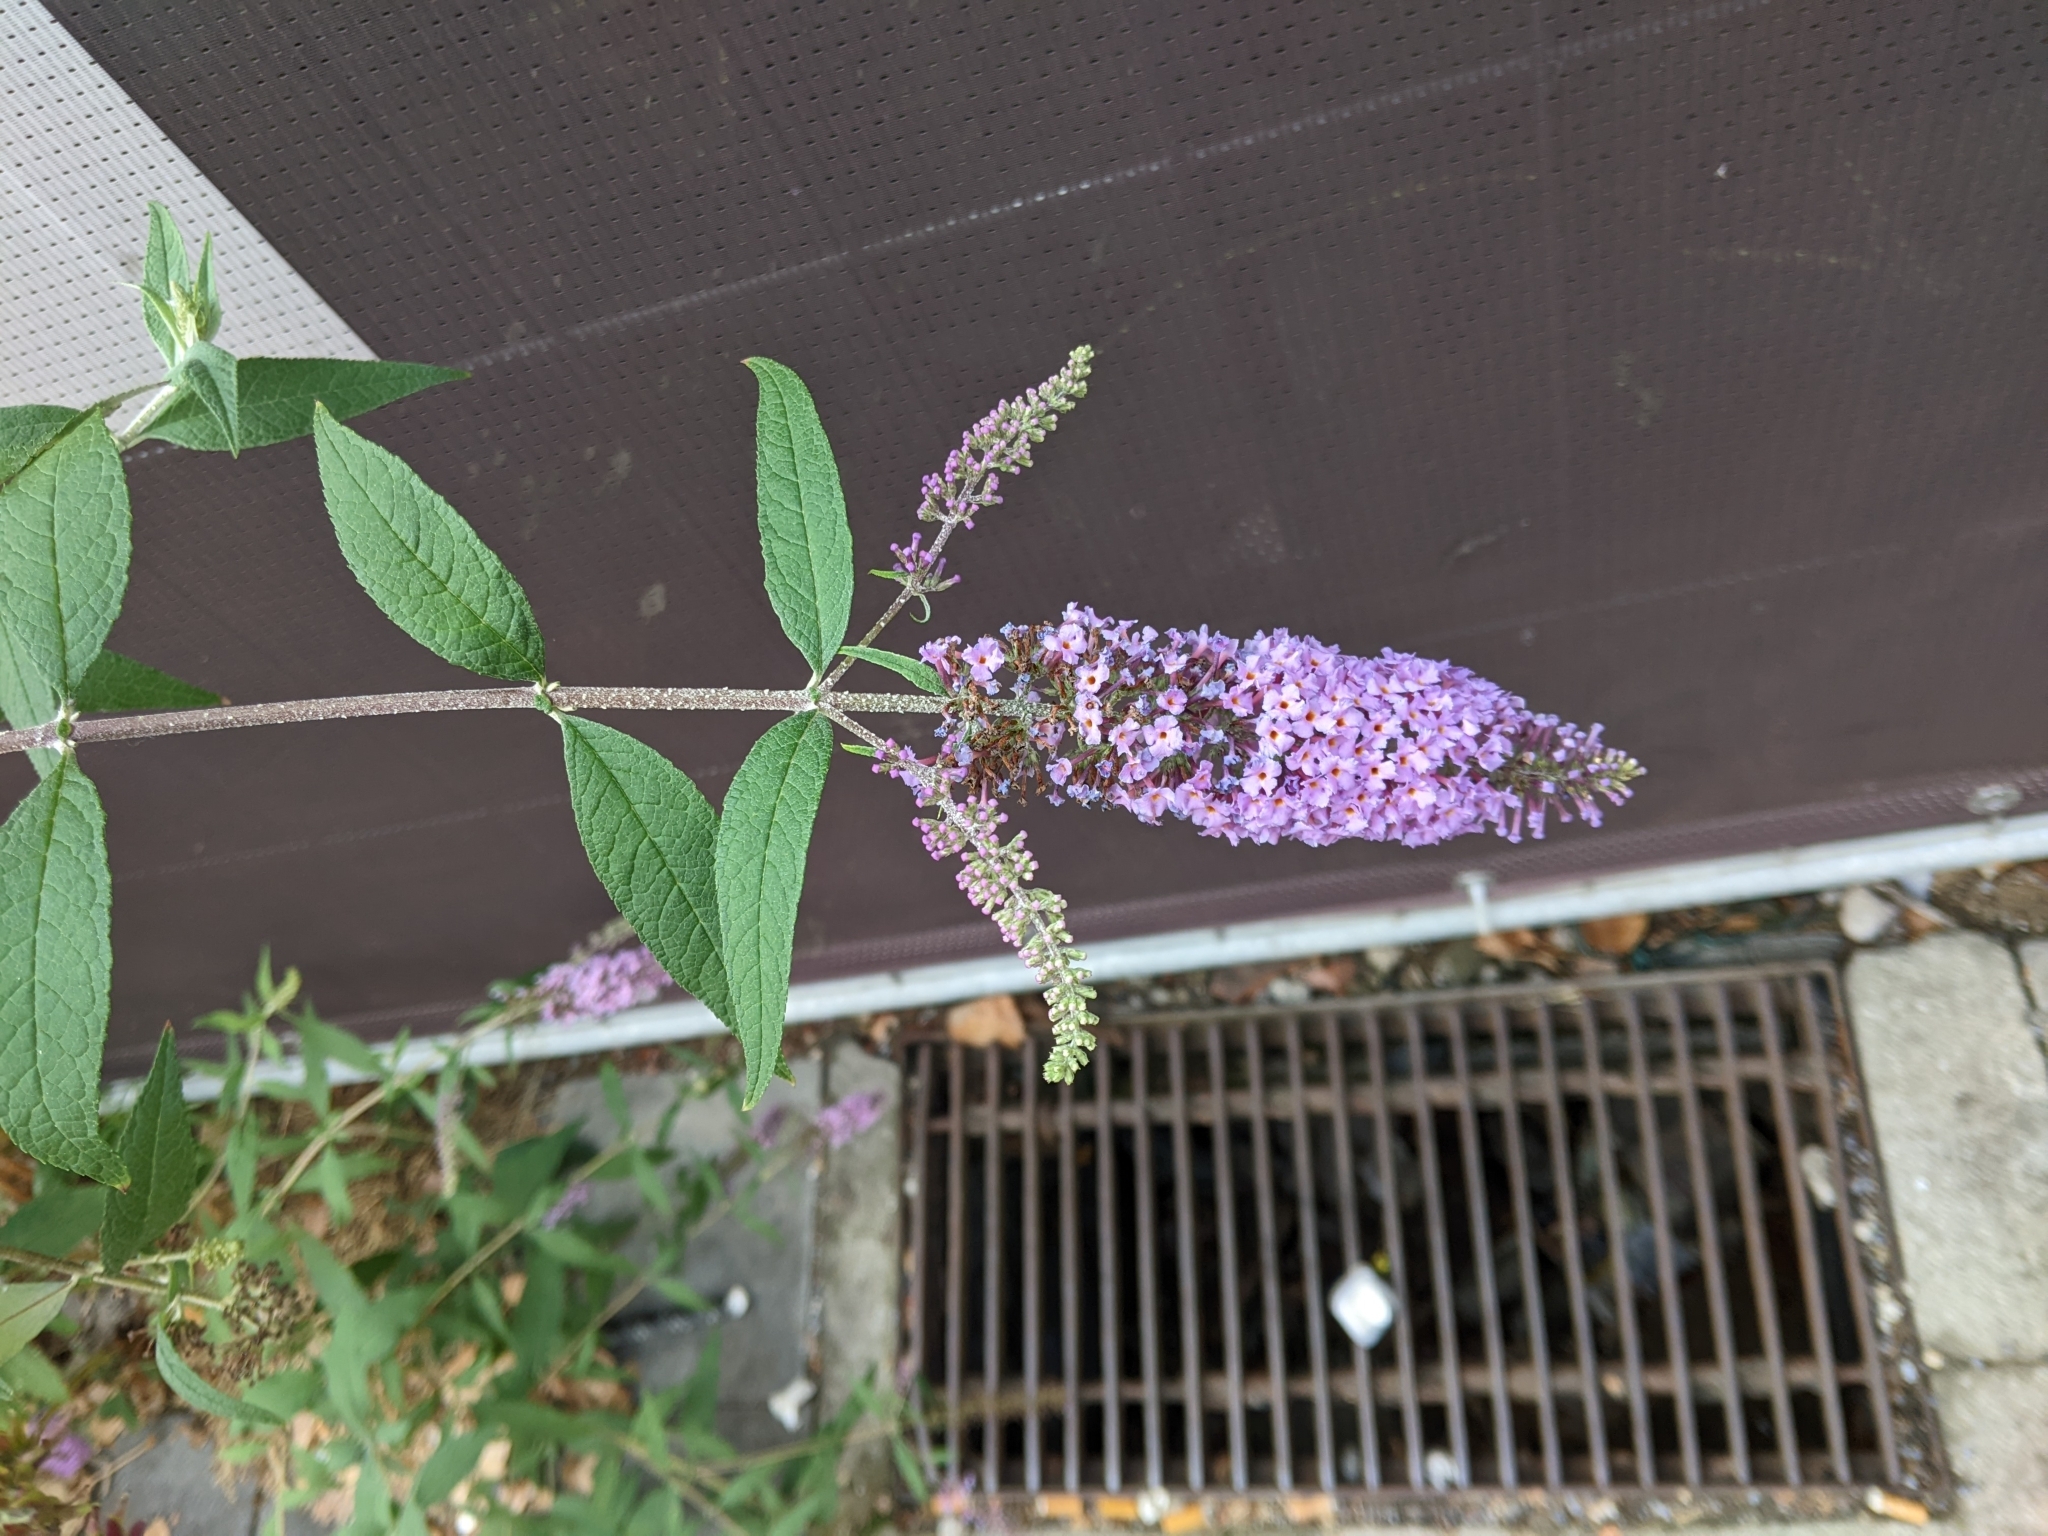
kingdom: Plantae
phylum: Tracheophyta
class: Magnoliopsida
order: Lamiales
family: Scrophulariaceae
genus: Buddleja
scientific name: Buddleja davidii
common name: Butterfly-bush
